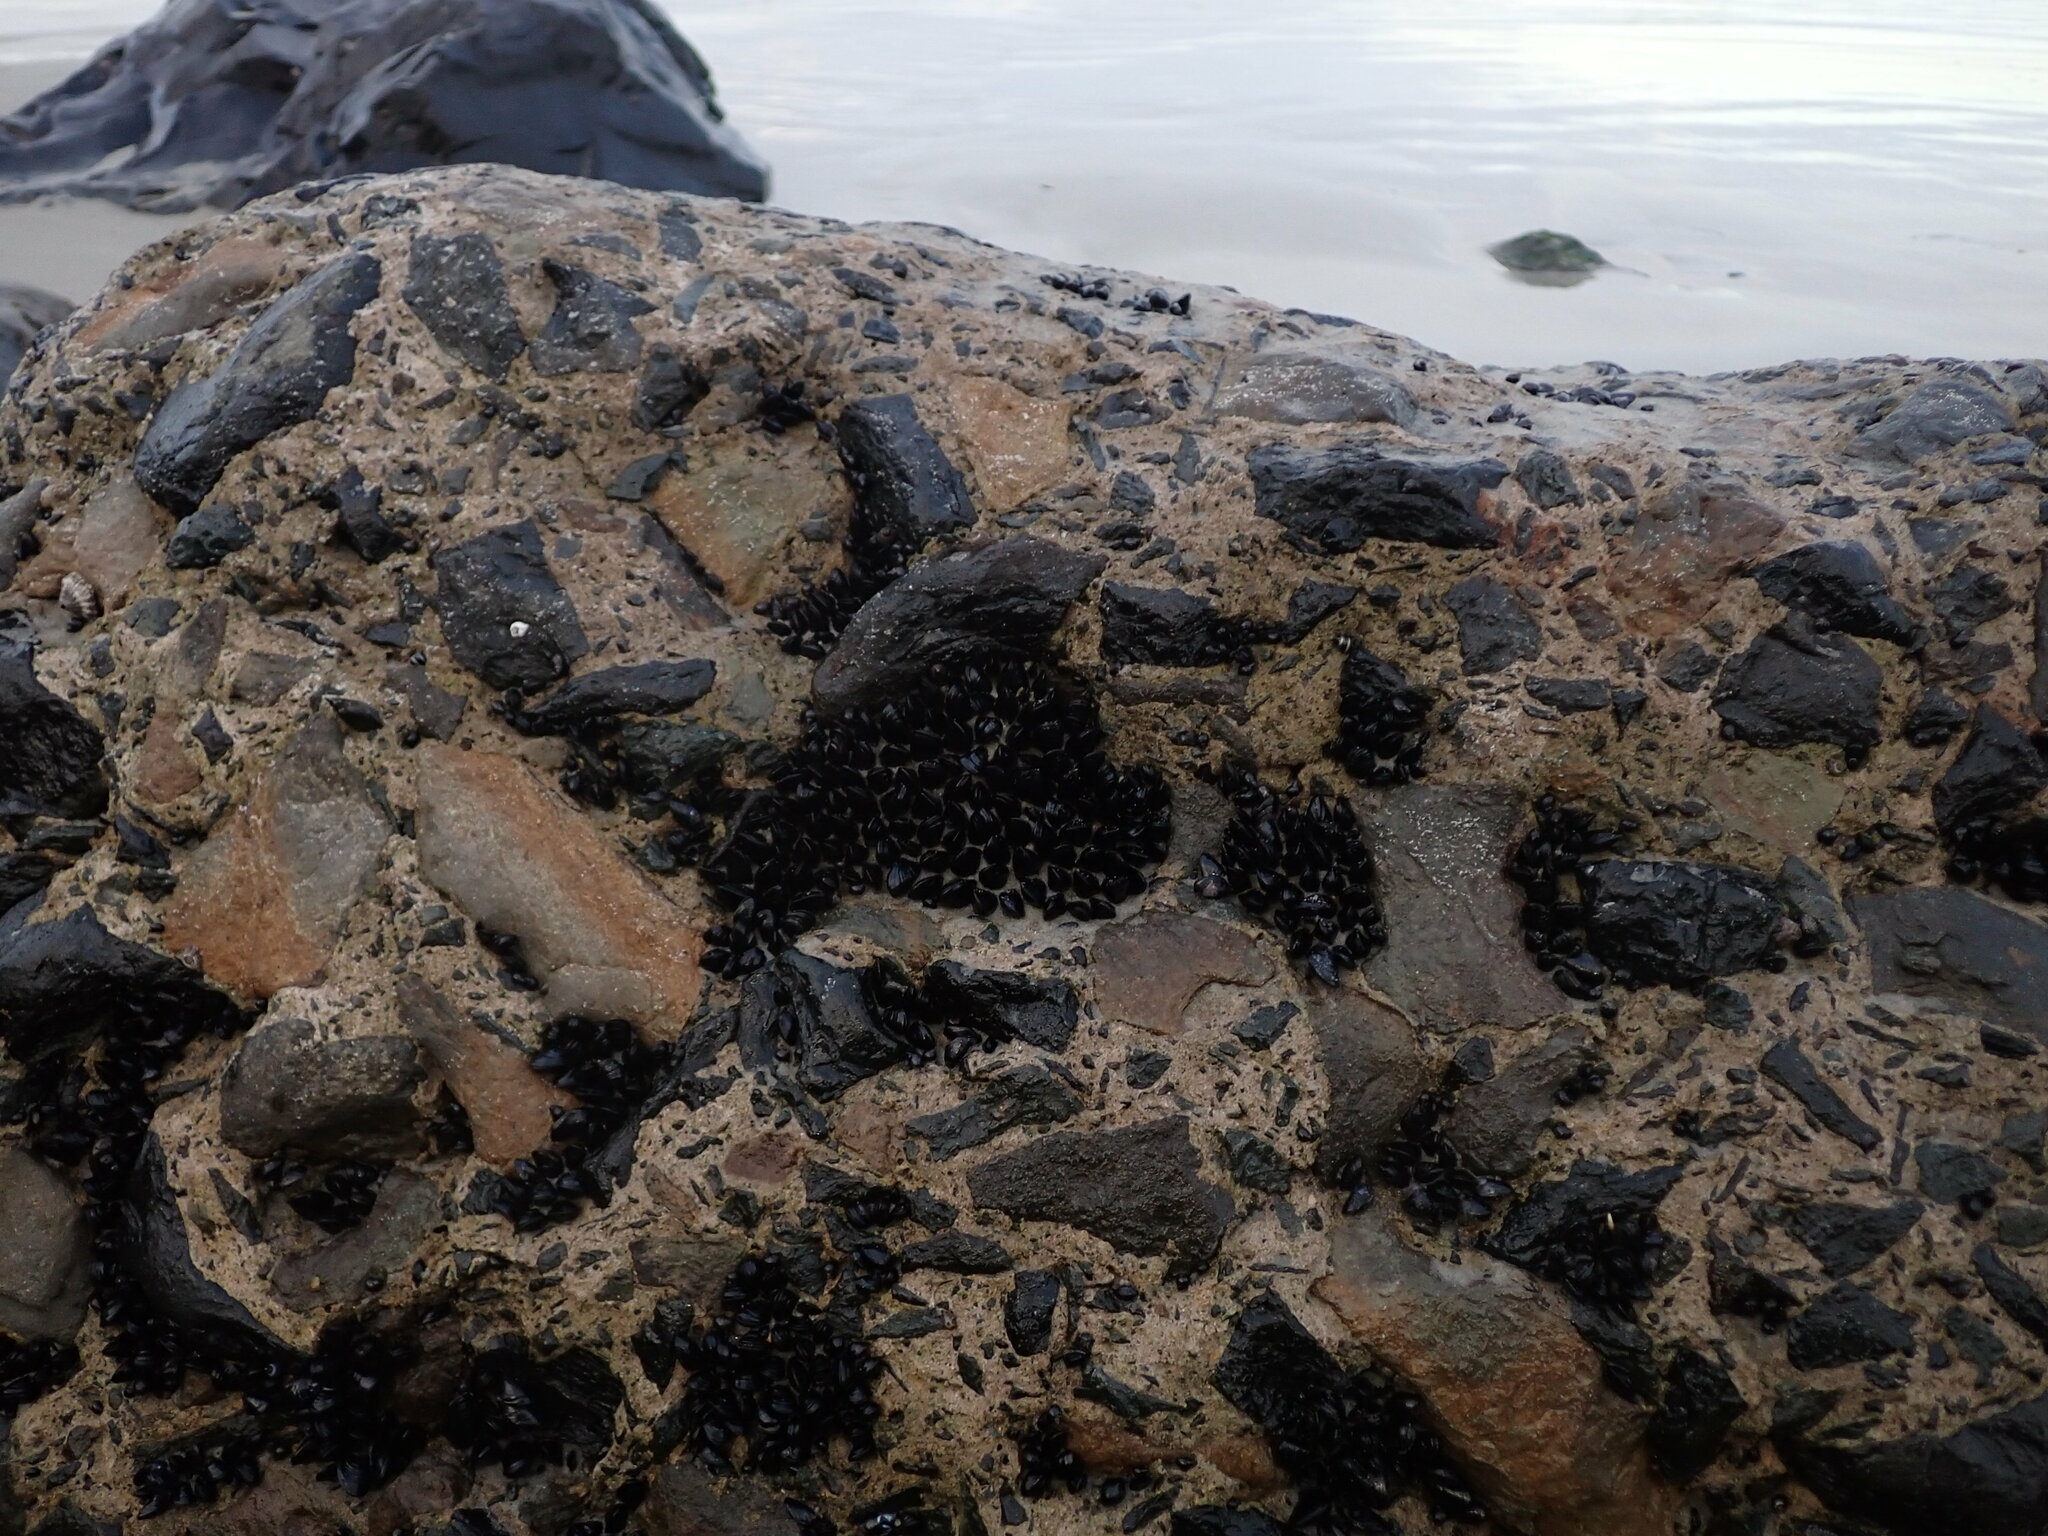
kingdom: Animalia
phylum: Mollusca
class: Bivalvia
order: Mytilida
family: Mytilidae
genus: Xenostrobus
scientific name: Xenostrobus neozelanicus
